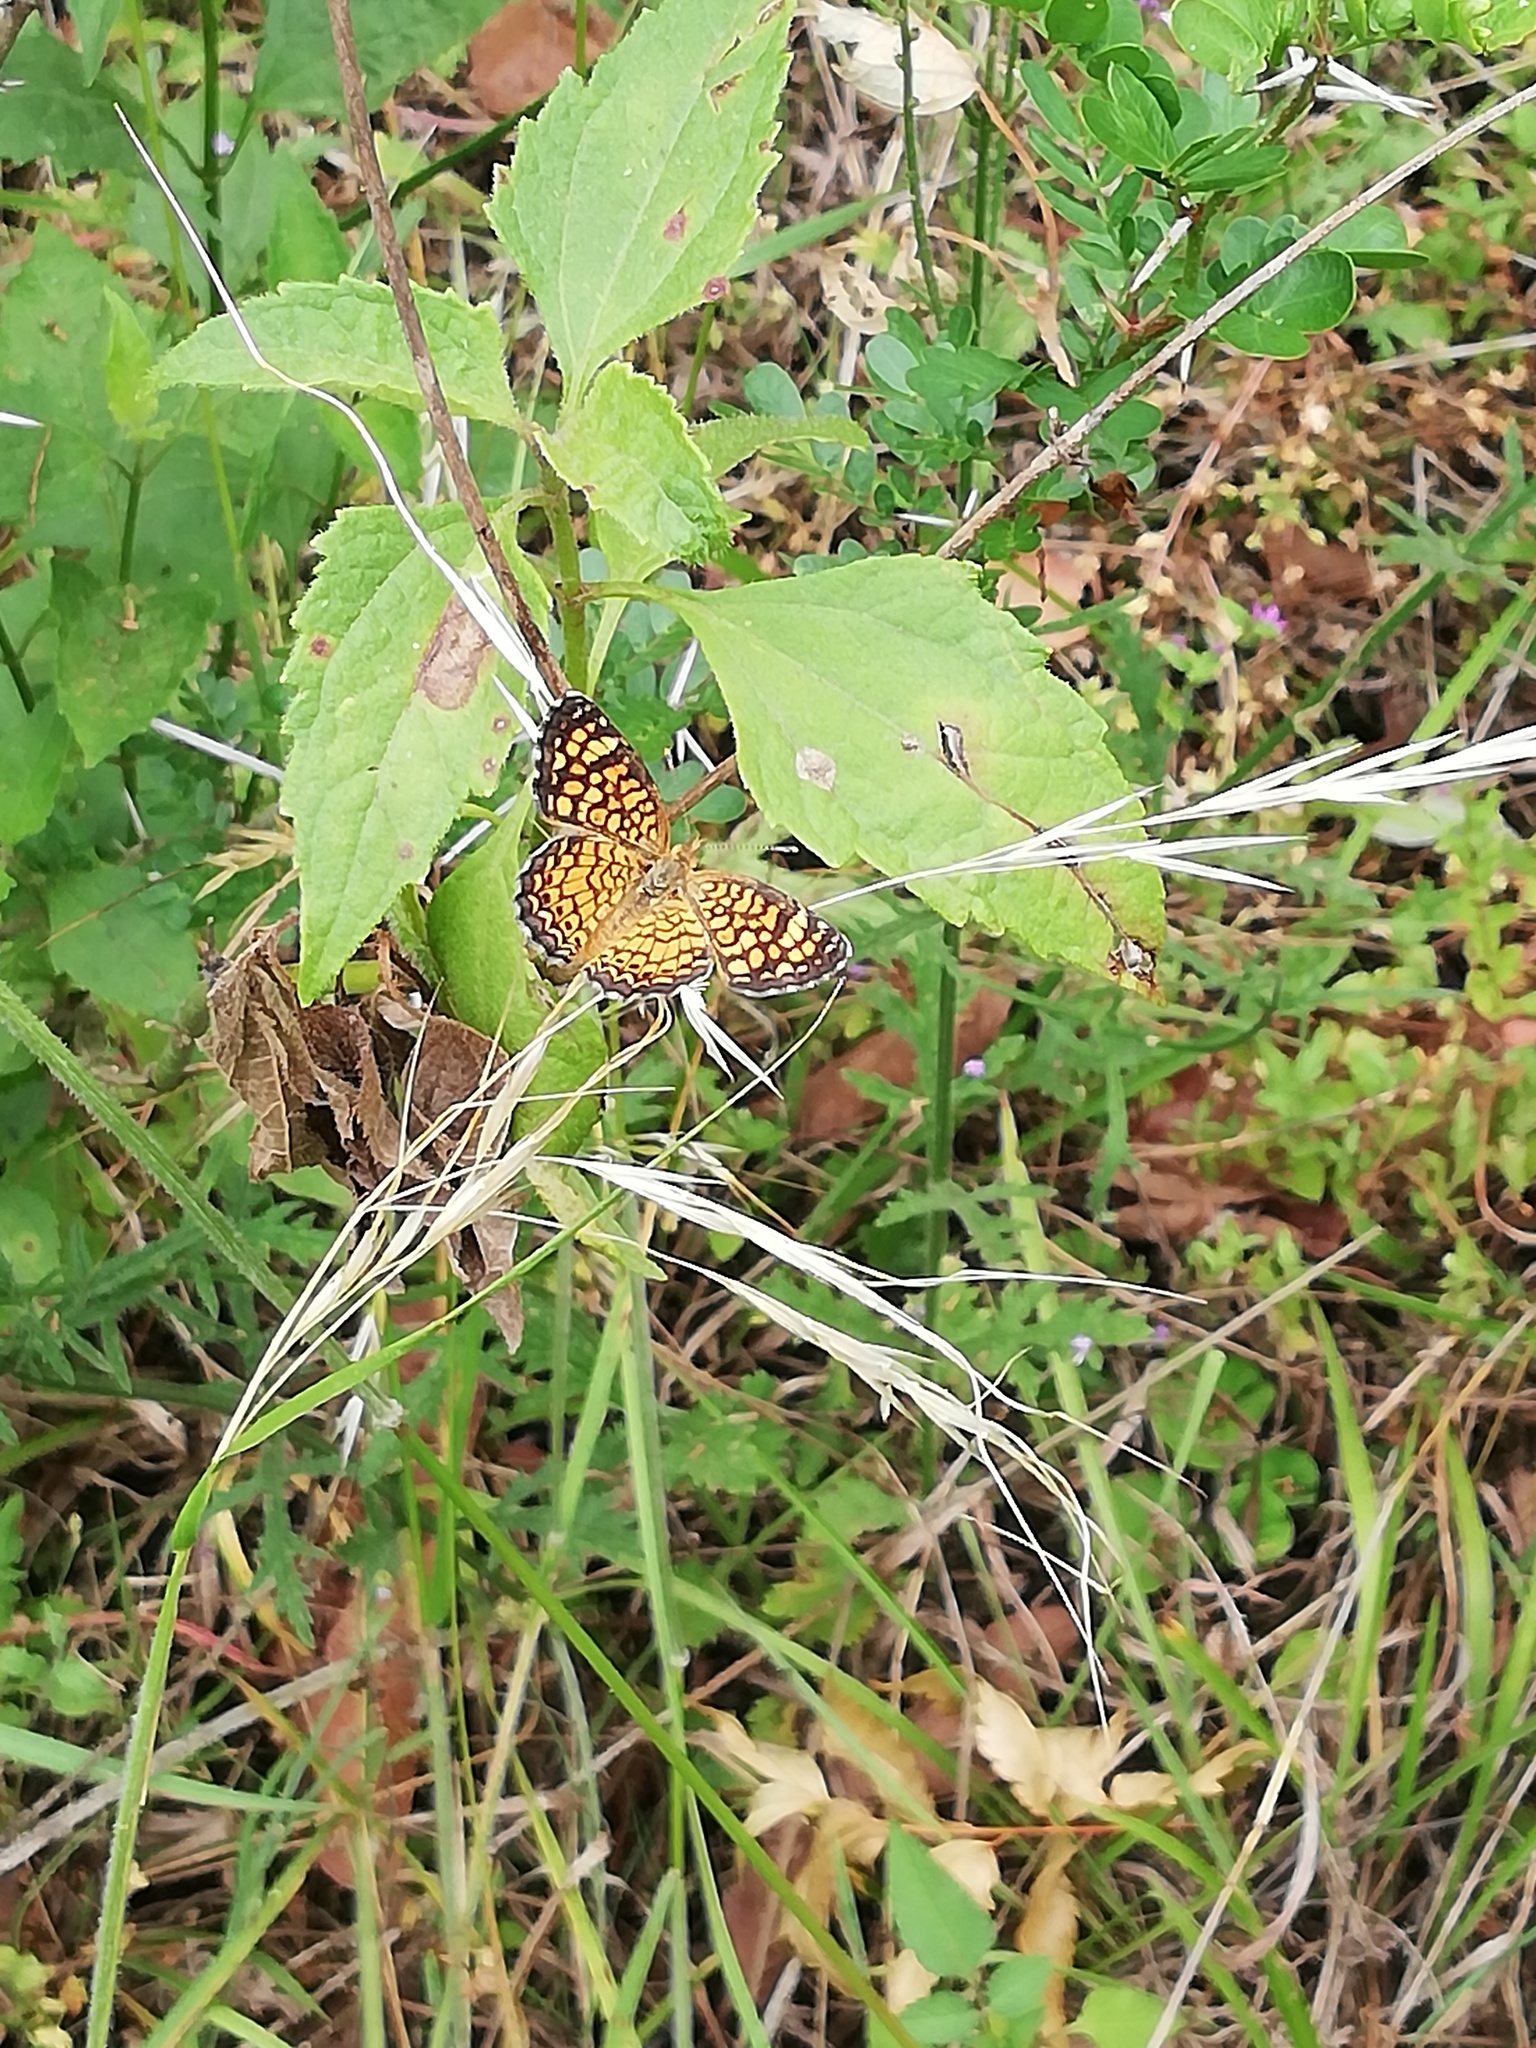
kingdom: Animalia
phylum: Arthropoda
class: Insecta
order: Lepidoptera
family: Nymphalidae
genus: Phyciodes
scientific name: Phyciodes vesta
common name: Vesta crescent
